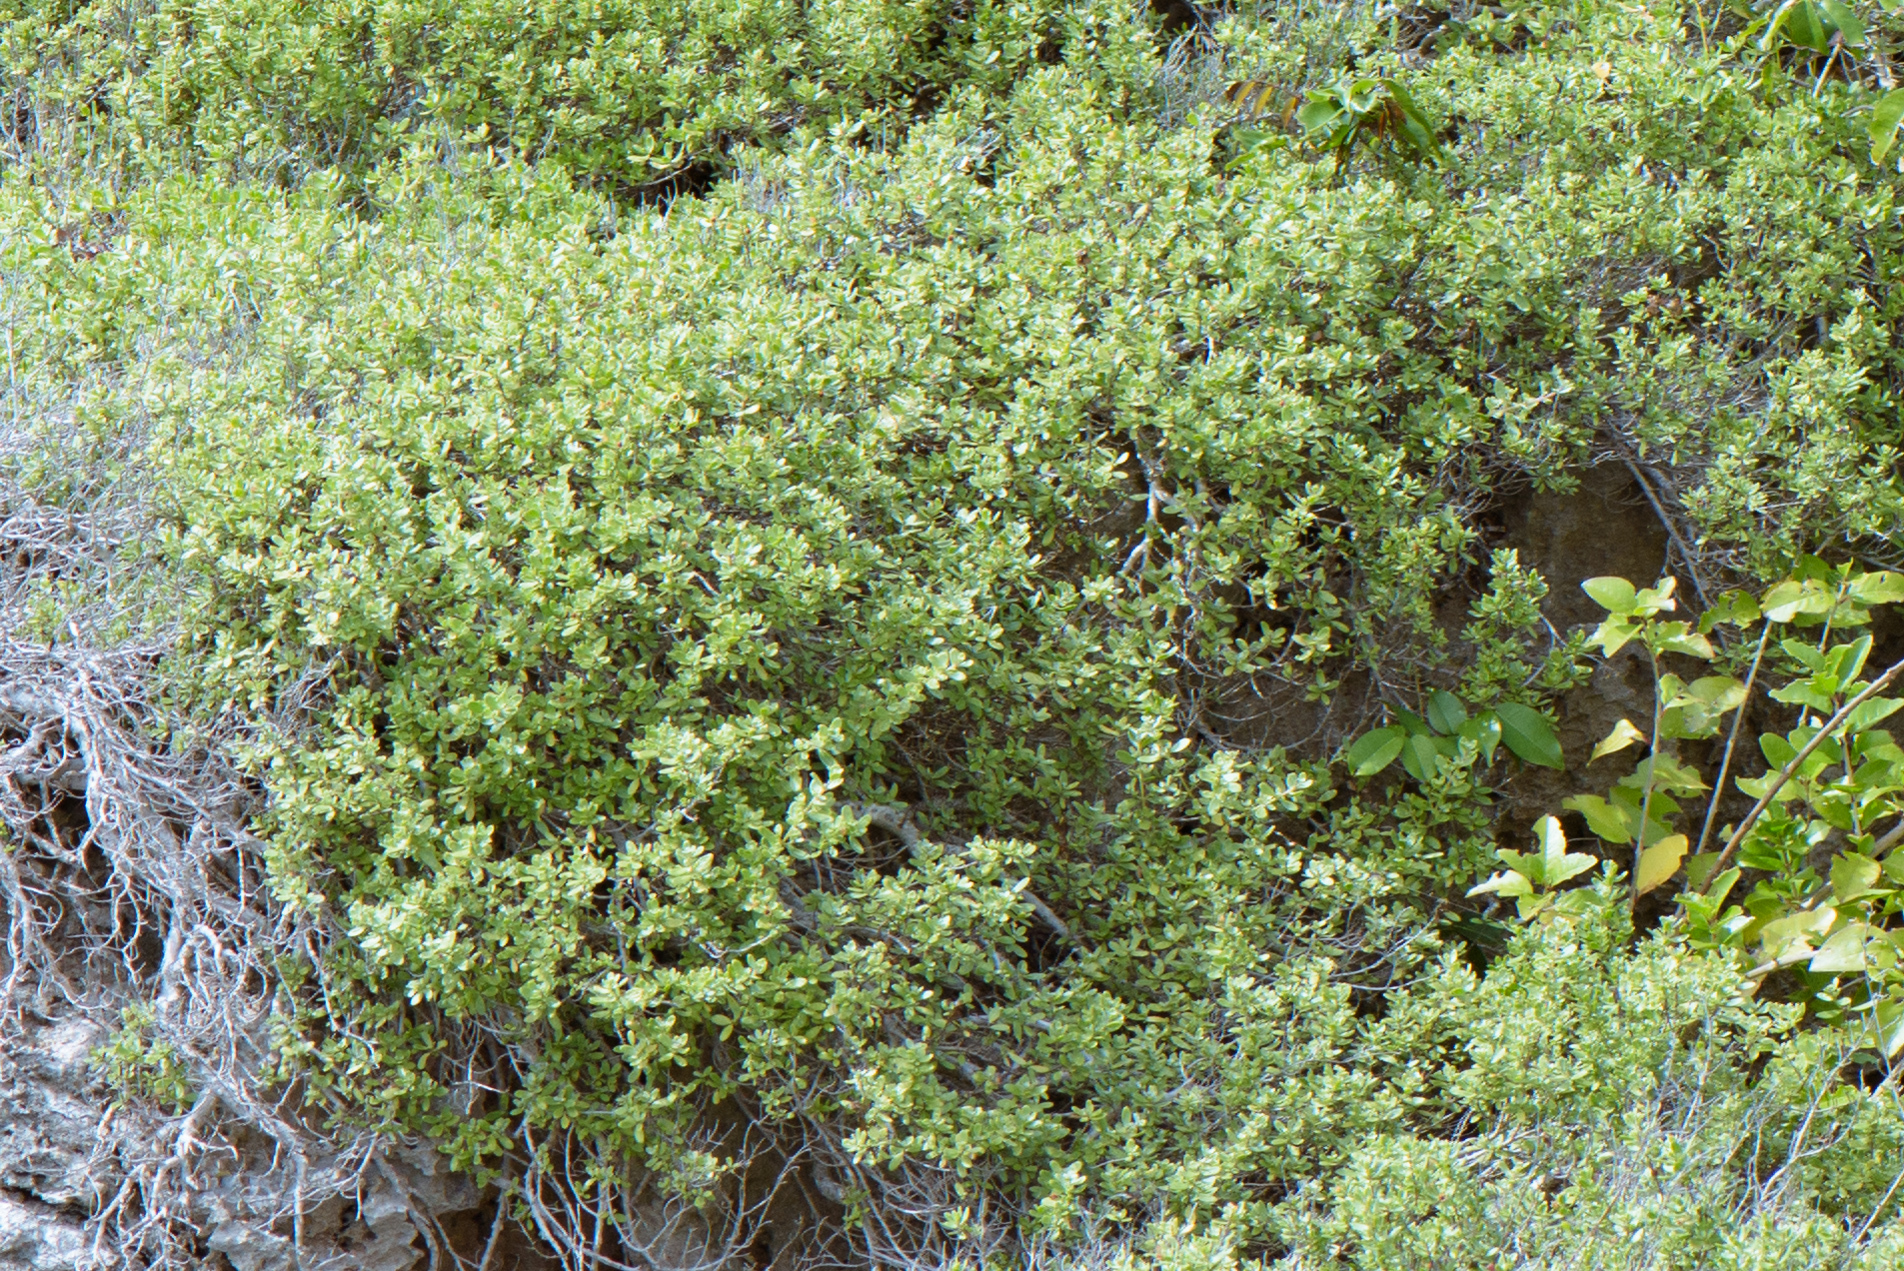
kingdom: Plantae
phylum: Tracheophyta
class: Magnoliopsida
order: Myrtales
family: Lythraceae
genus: Pemphis
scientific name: Pemphis acidula
